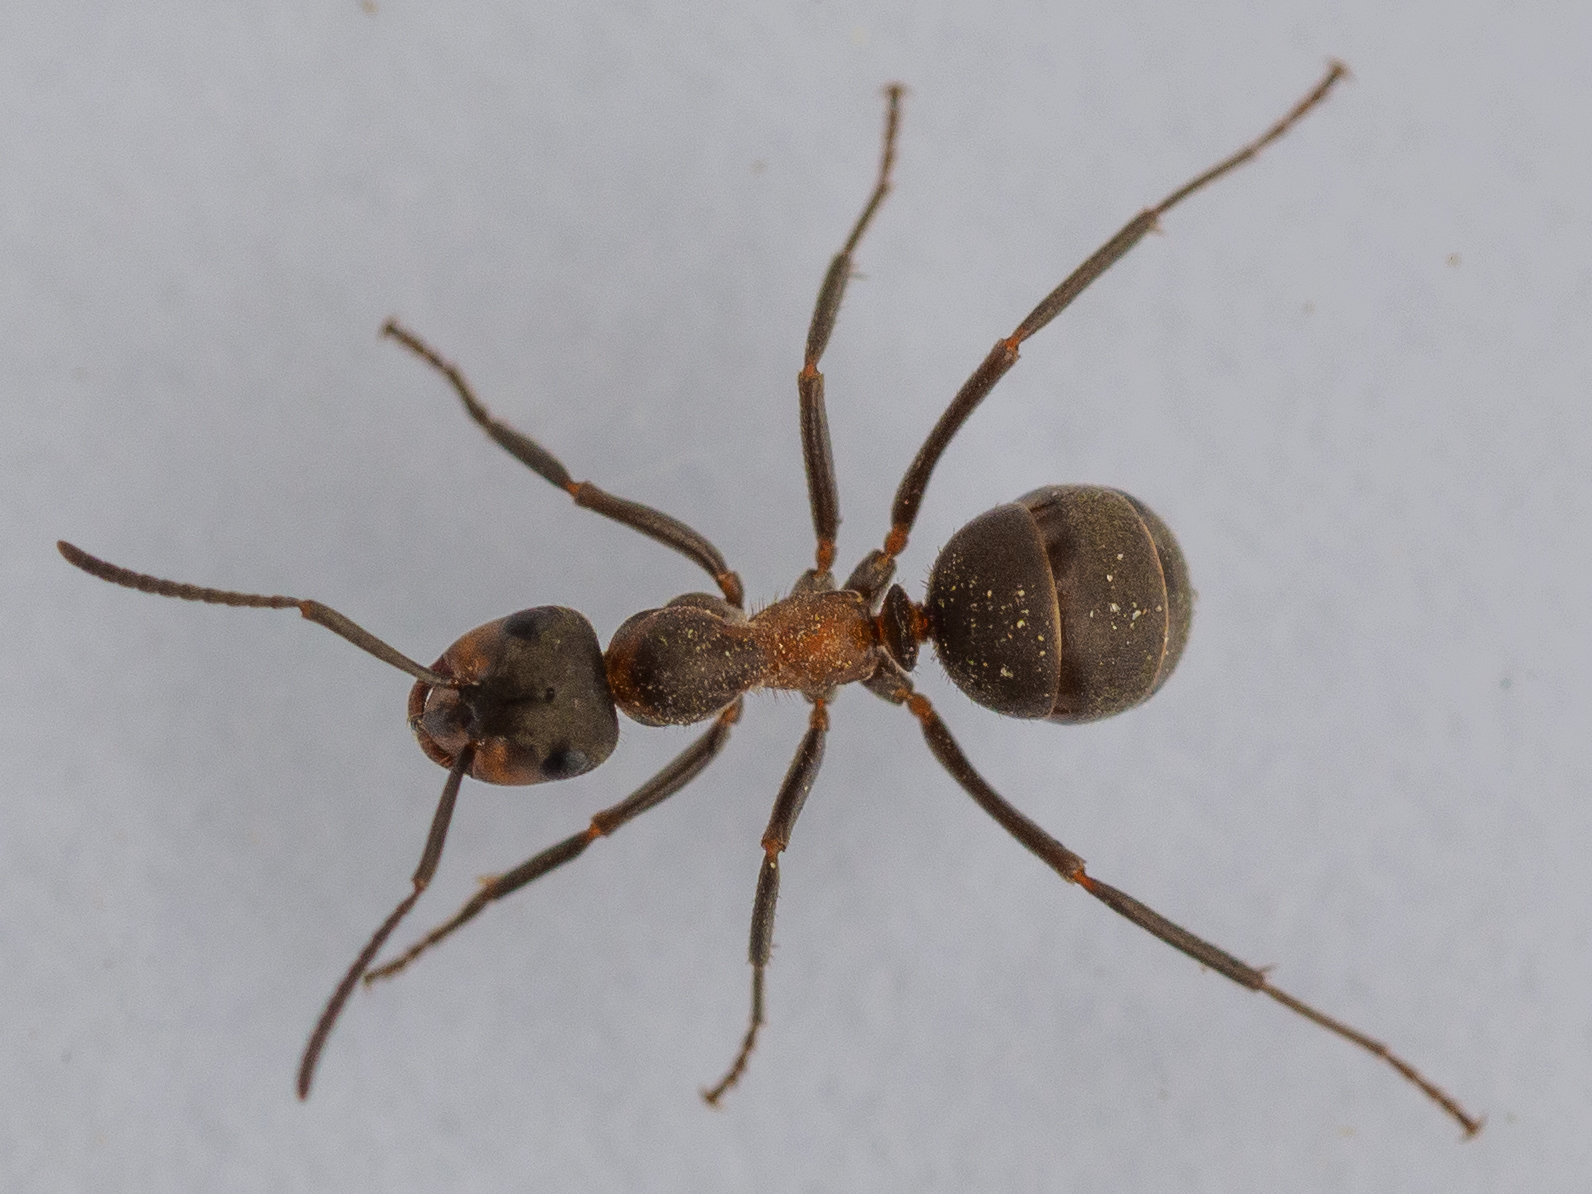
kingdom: Animalia
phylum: Arthropoda
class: Insecta
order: Hymenoptera
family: Formicidae
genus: Formica
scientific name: Formica pratensis
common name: European red wood ant
